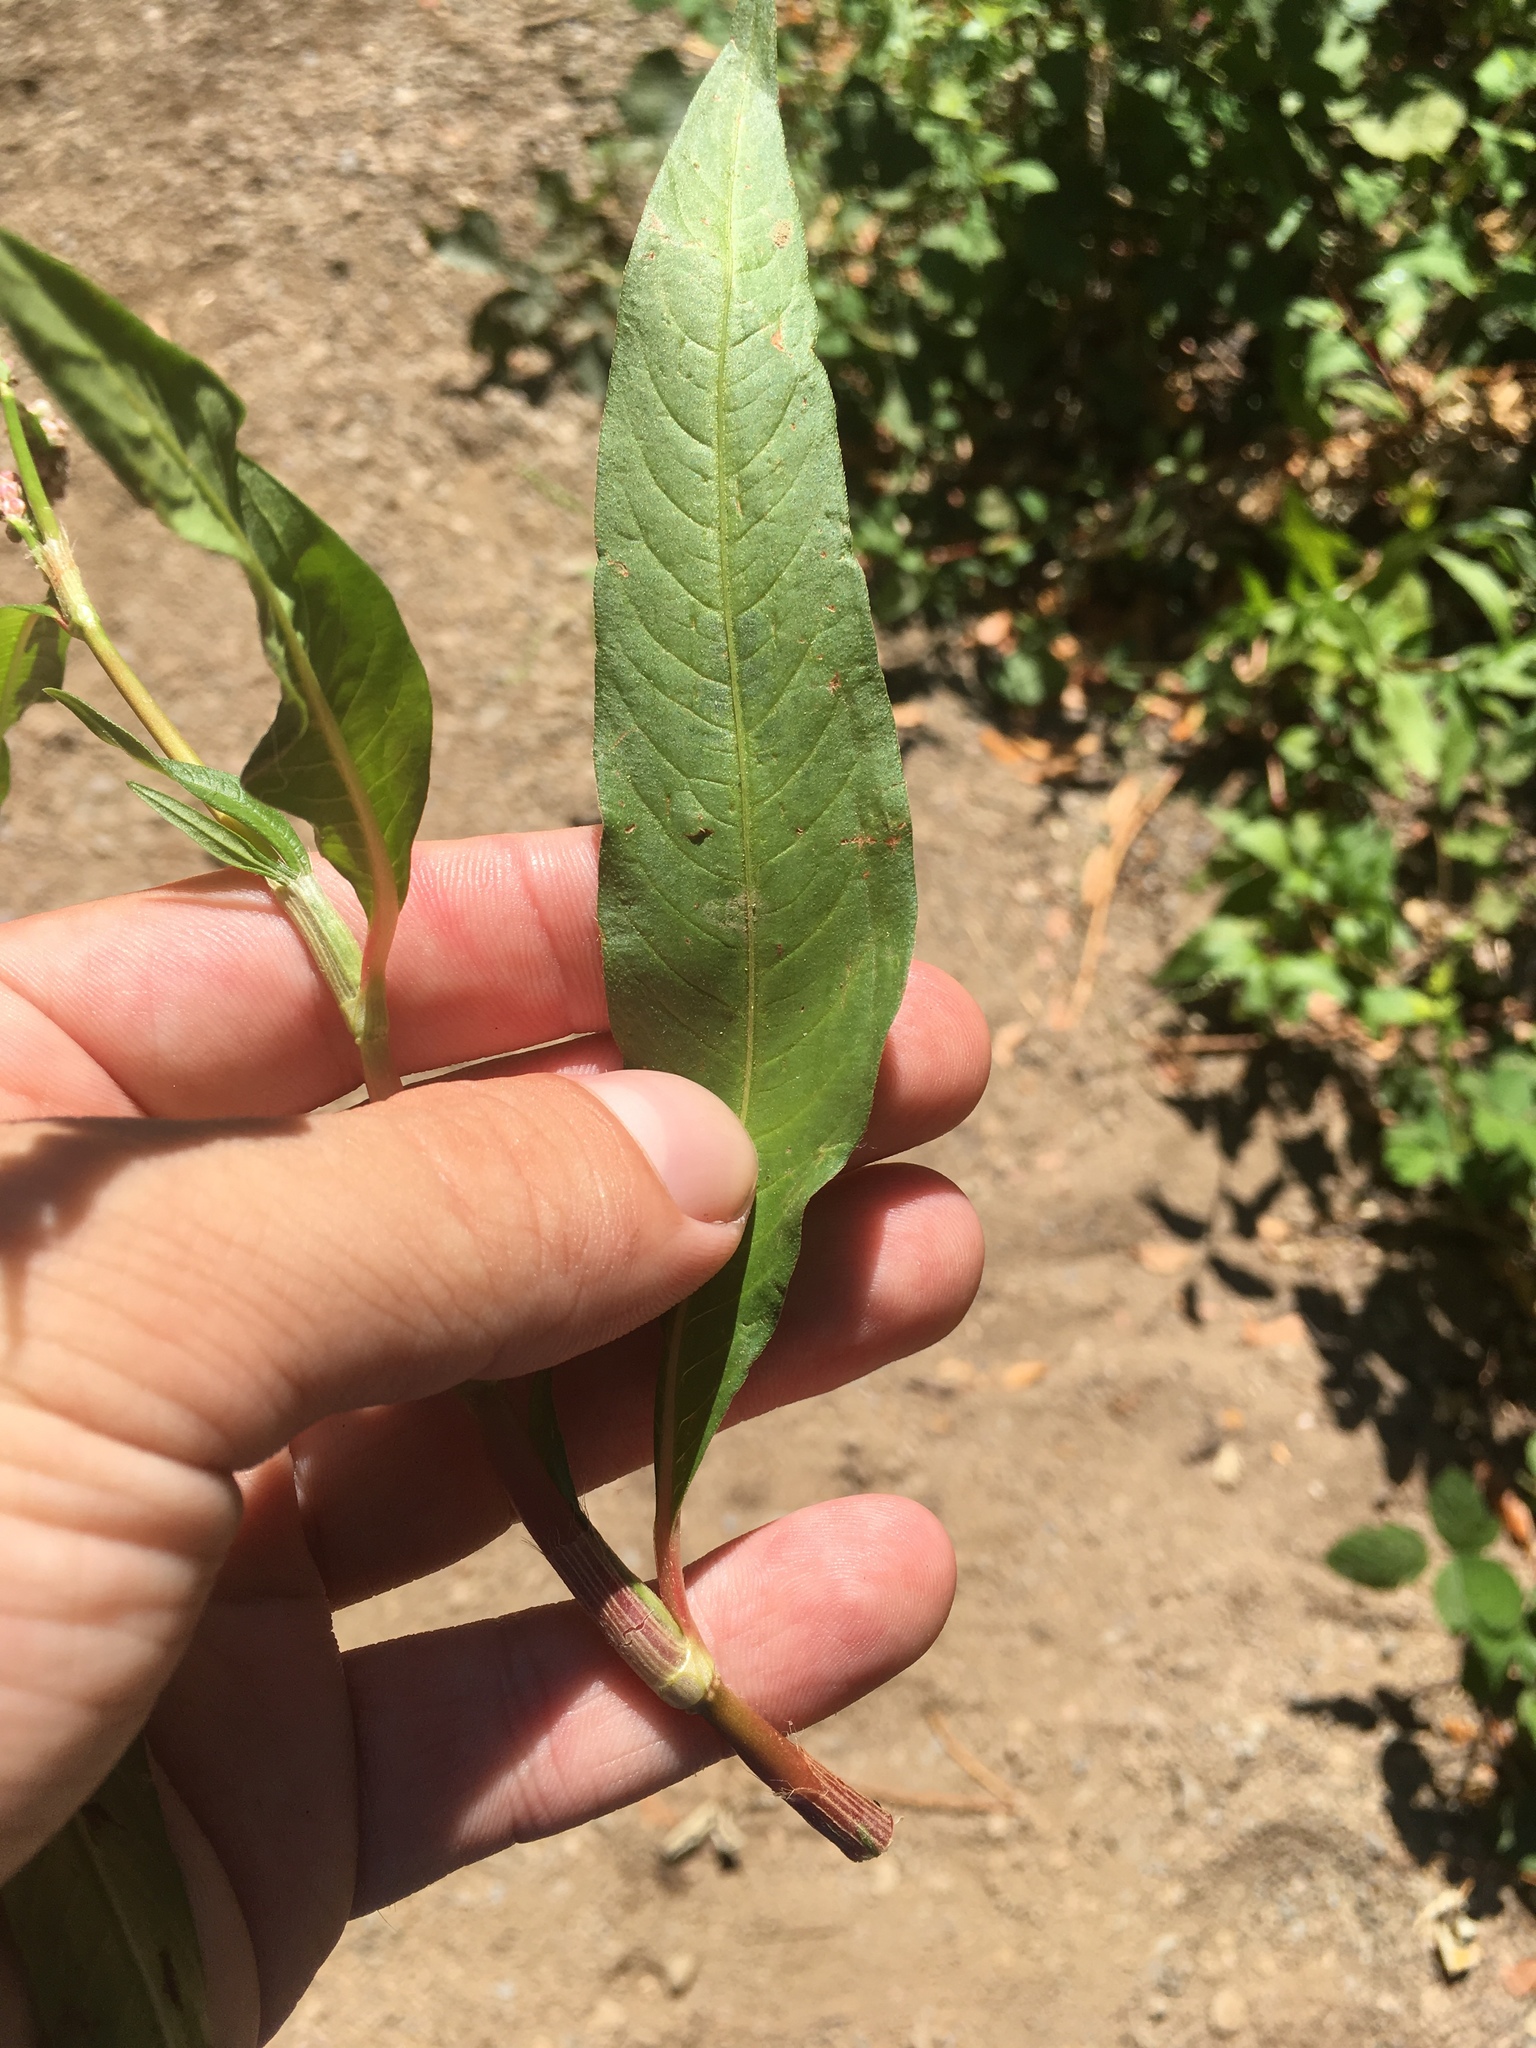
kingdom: Plantae
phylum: Tracheophyta
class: Magnoliopsida
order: Caryophyllales
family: Polygonaceae
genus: Persicaria
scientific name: Persicaria maculosa
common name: Redshank
